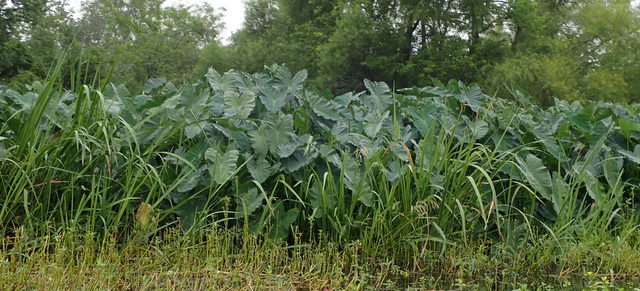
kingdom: Plantae
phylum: Tracheophyta
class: Liliopsida
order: Alismatales
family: Araceae
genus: Colocasia
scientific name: Colocasia esculenta
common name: Taro
